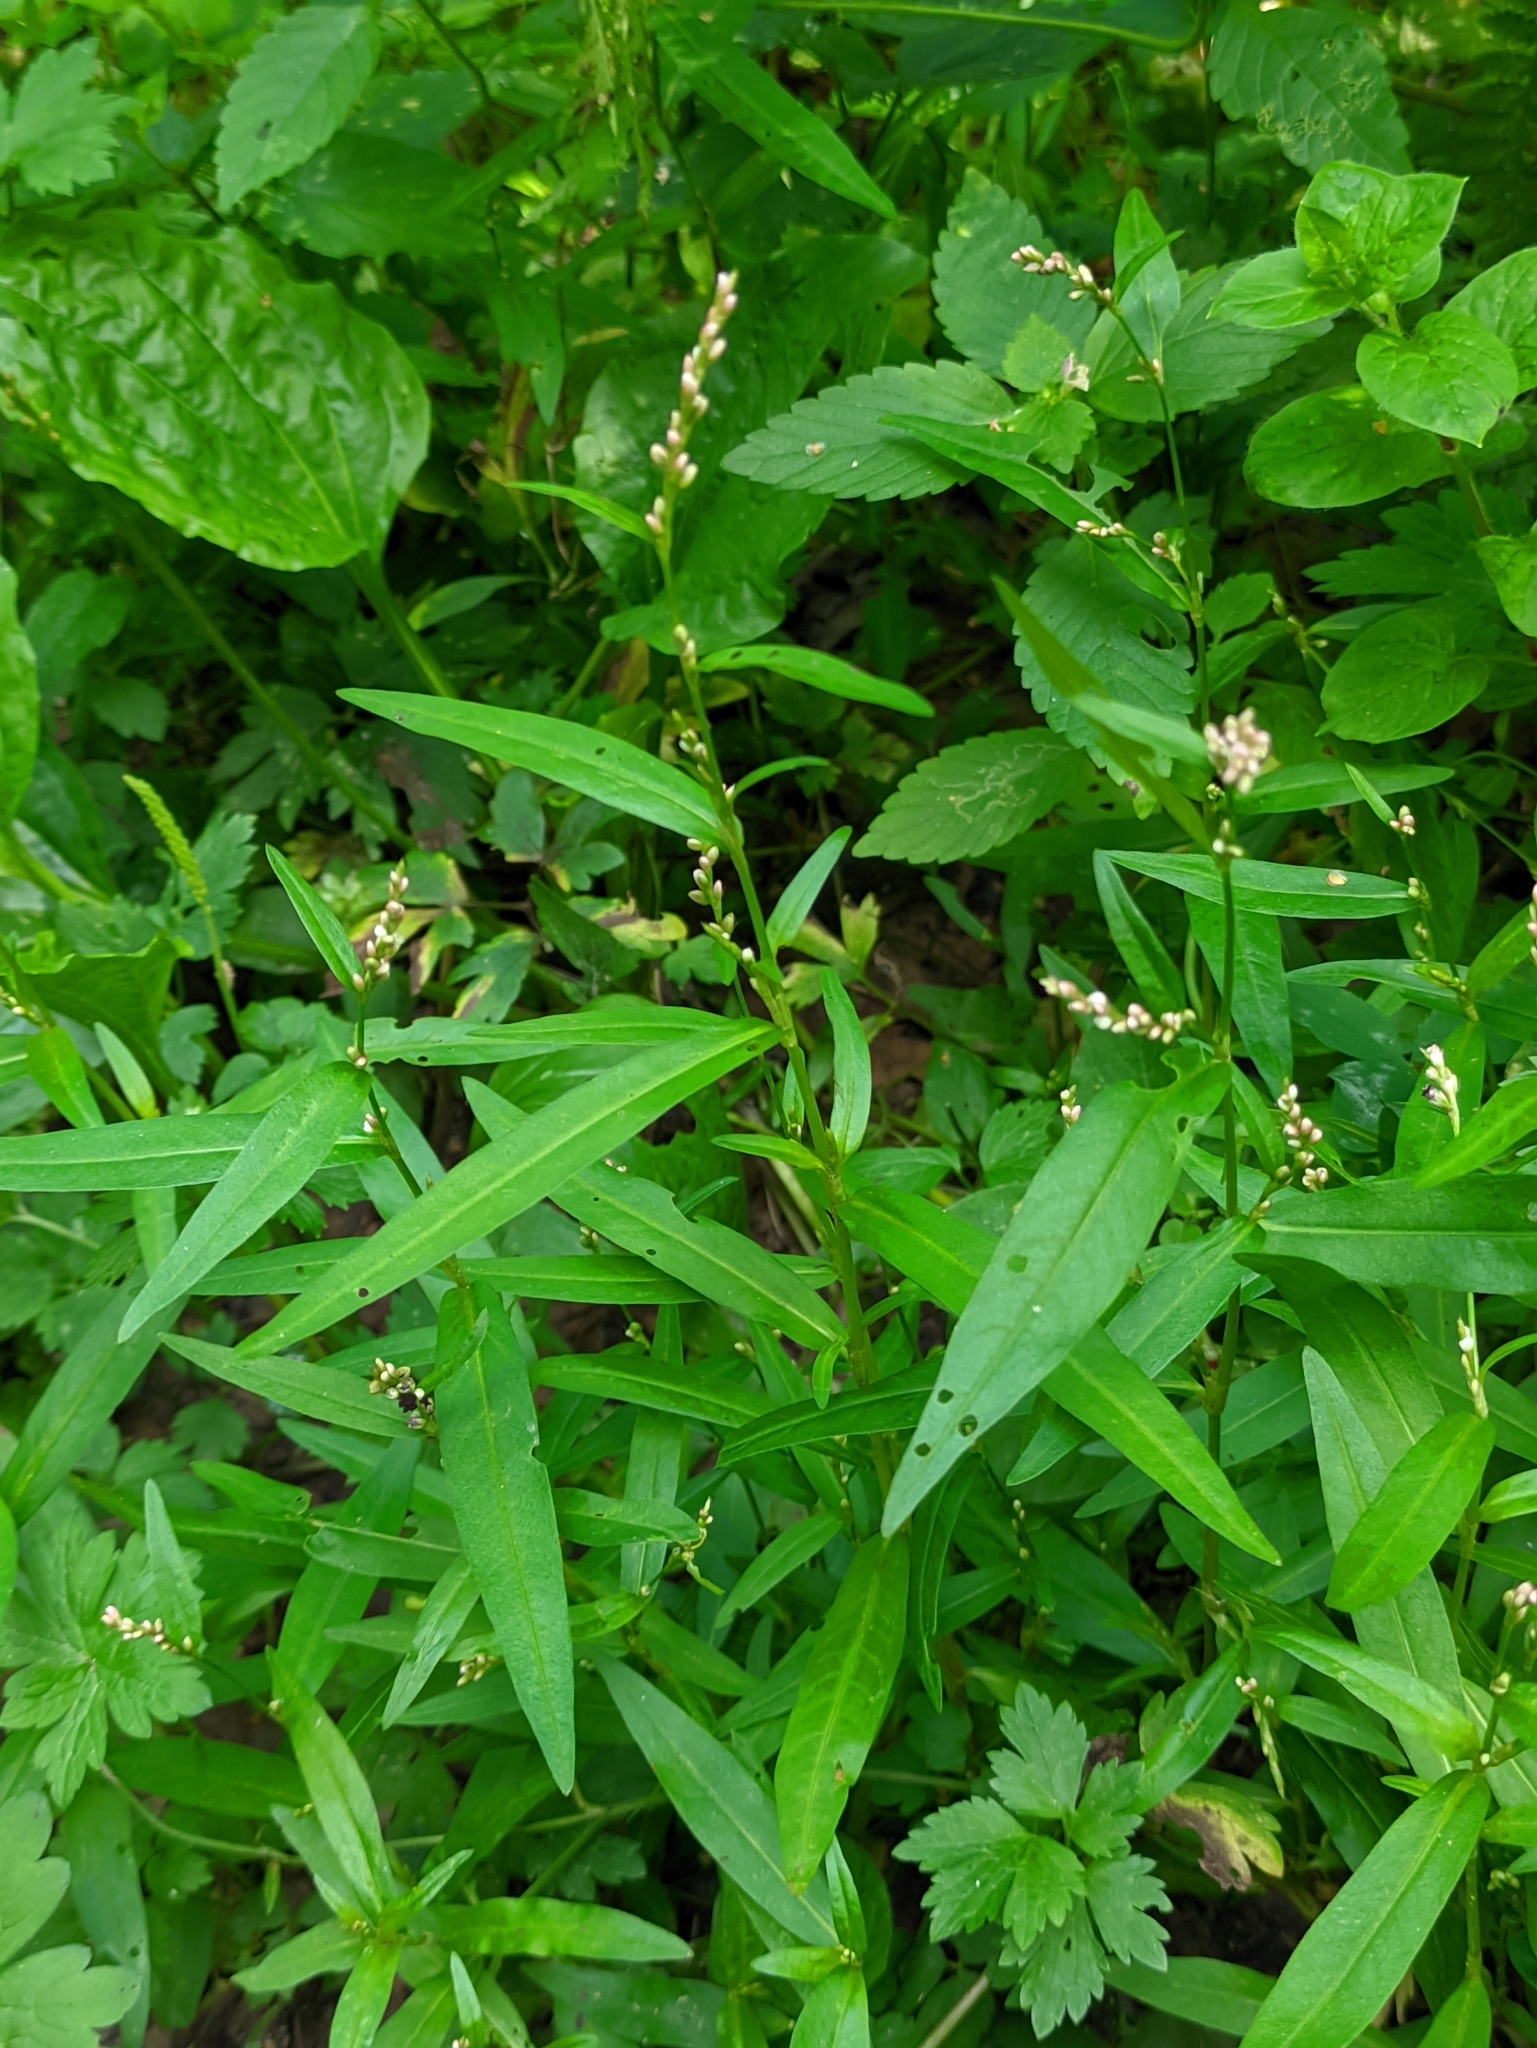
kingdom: Plantae
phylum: Tracheophyta
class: Magnoliopsida
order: Caryophyllales
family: Polygonaceae
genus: Persicaria
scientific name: Persicaria minor
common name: Small water-pepper
